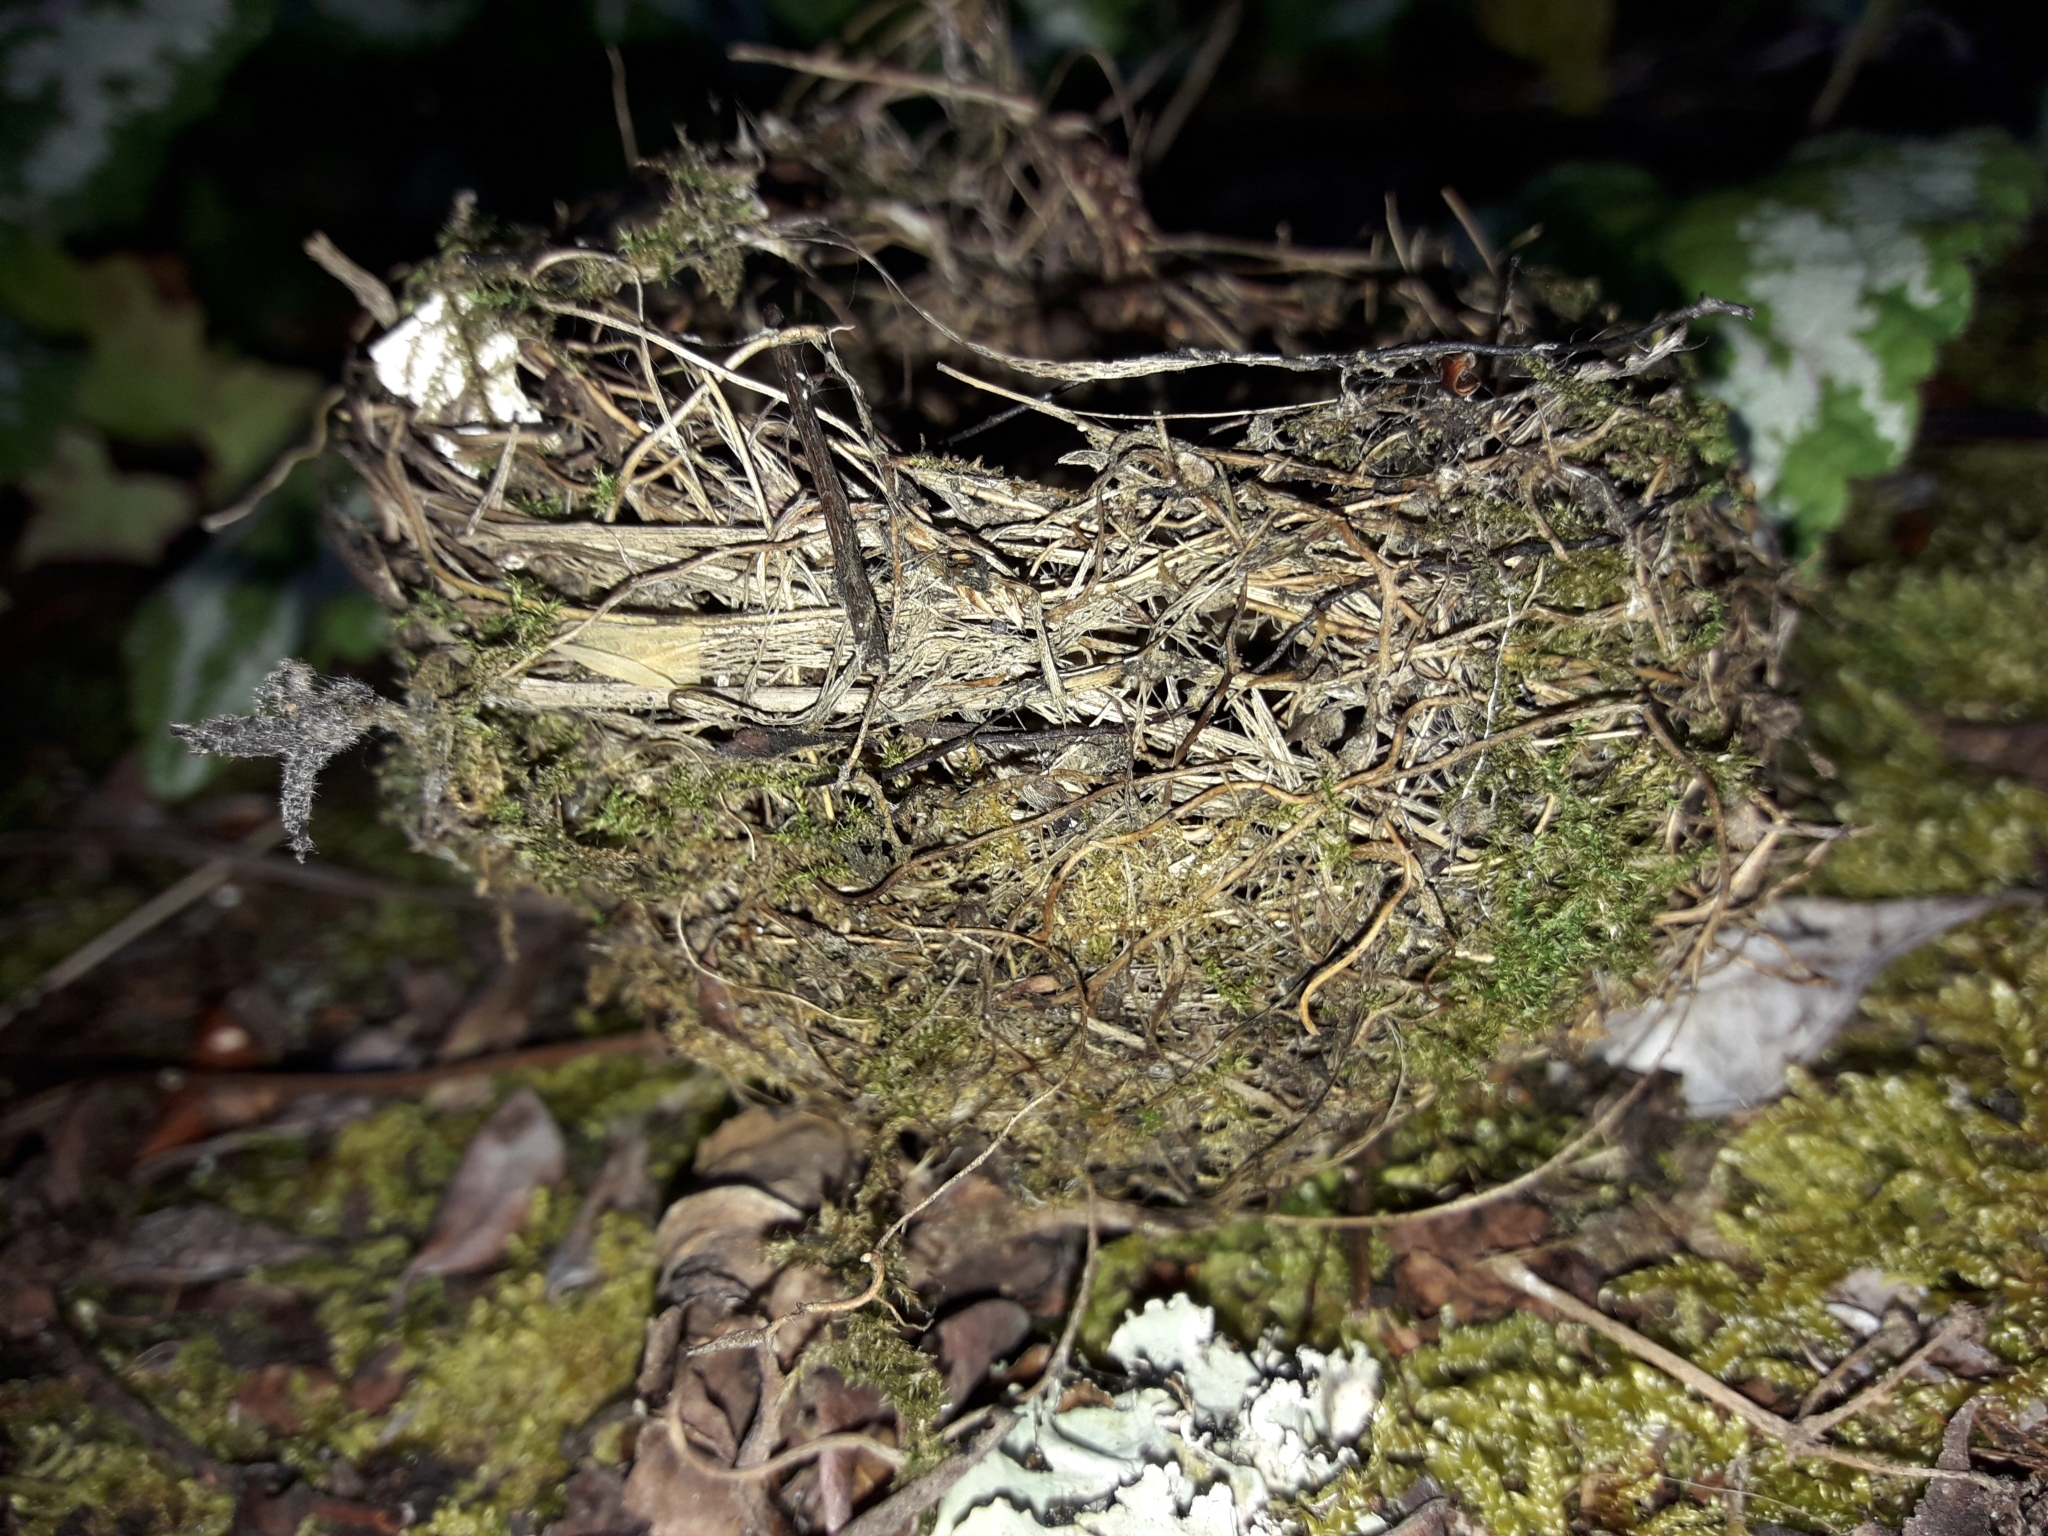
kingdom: Animalia
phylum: Chordata
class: Aves
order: Passeriformes
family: Zosteropidae
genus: Zosterops
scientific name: Zosterops lateralis
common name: Silvereye
